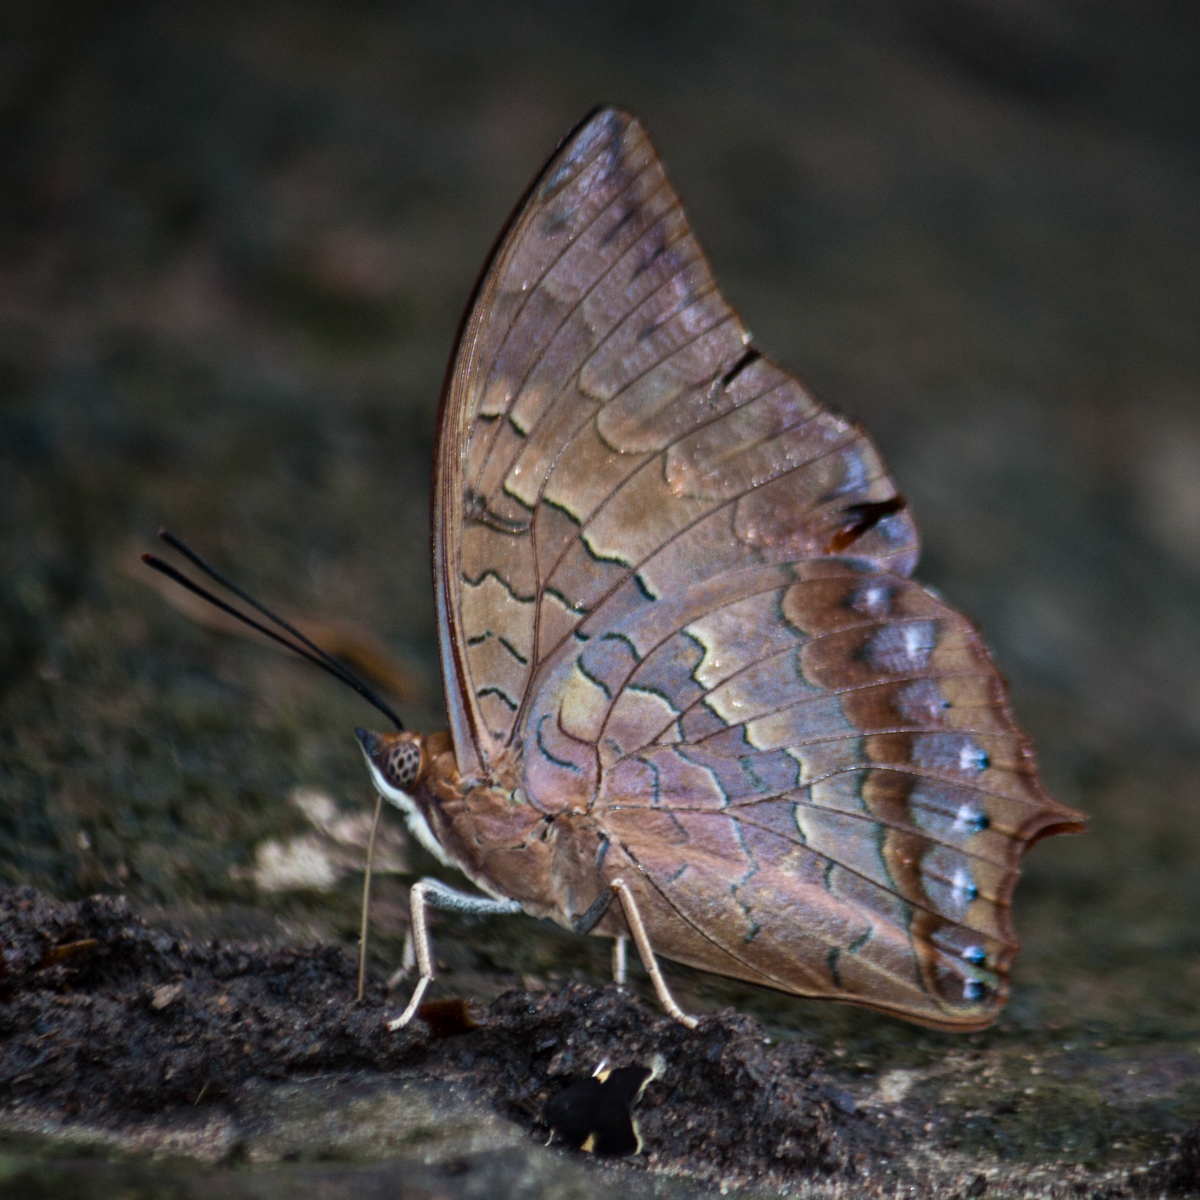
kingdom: Animalia
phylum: Arthropoda
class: Insecta
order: Lepidoptera
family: Nymphalidae
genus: Charaxes
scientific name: Charaxes bernardus
